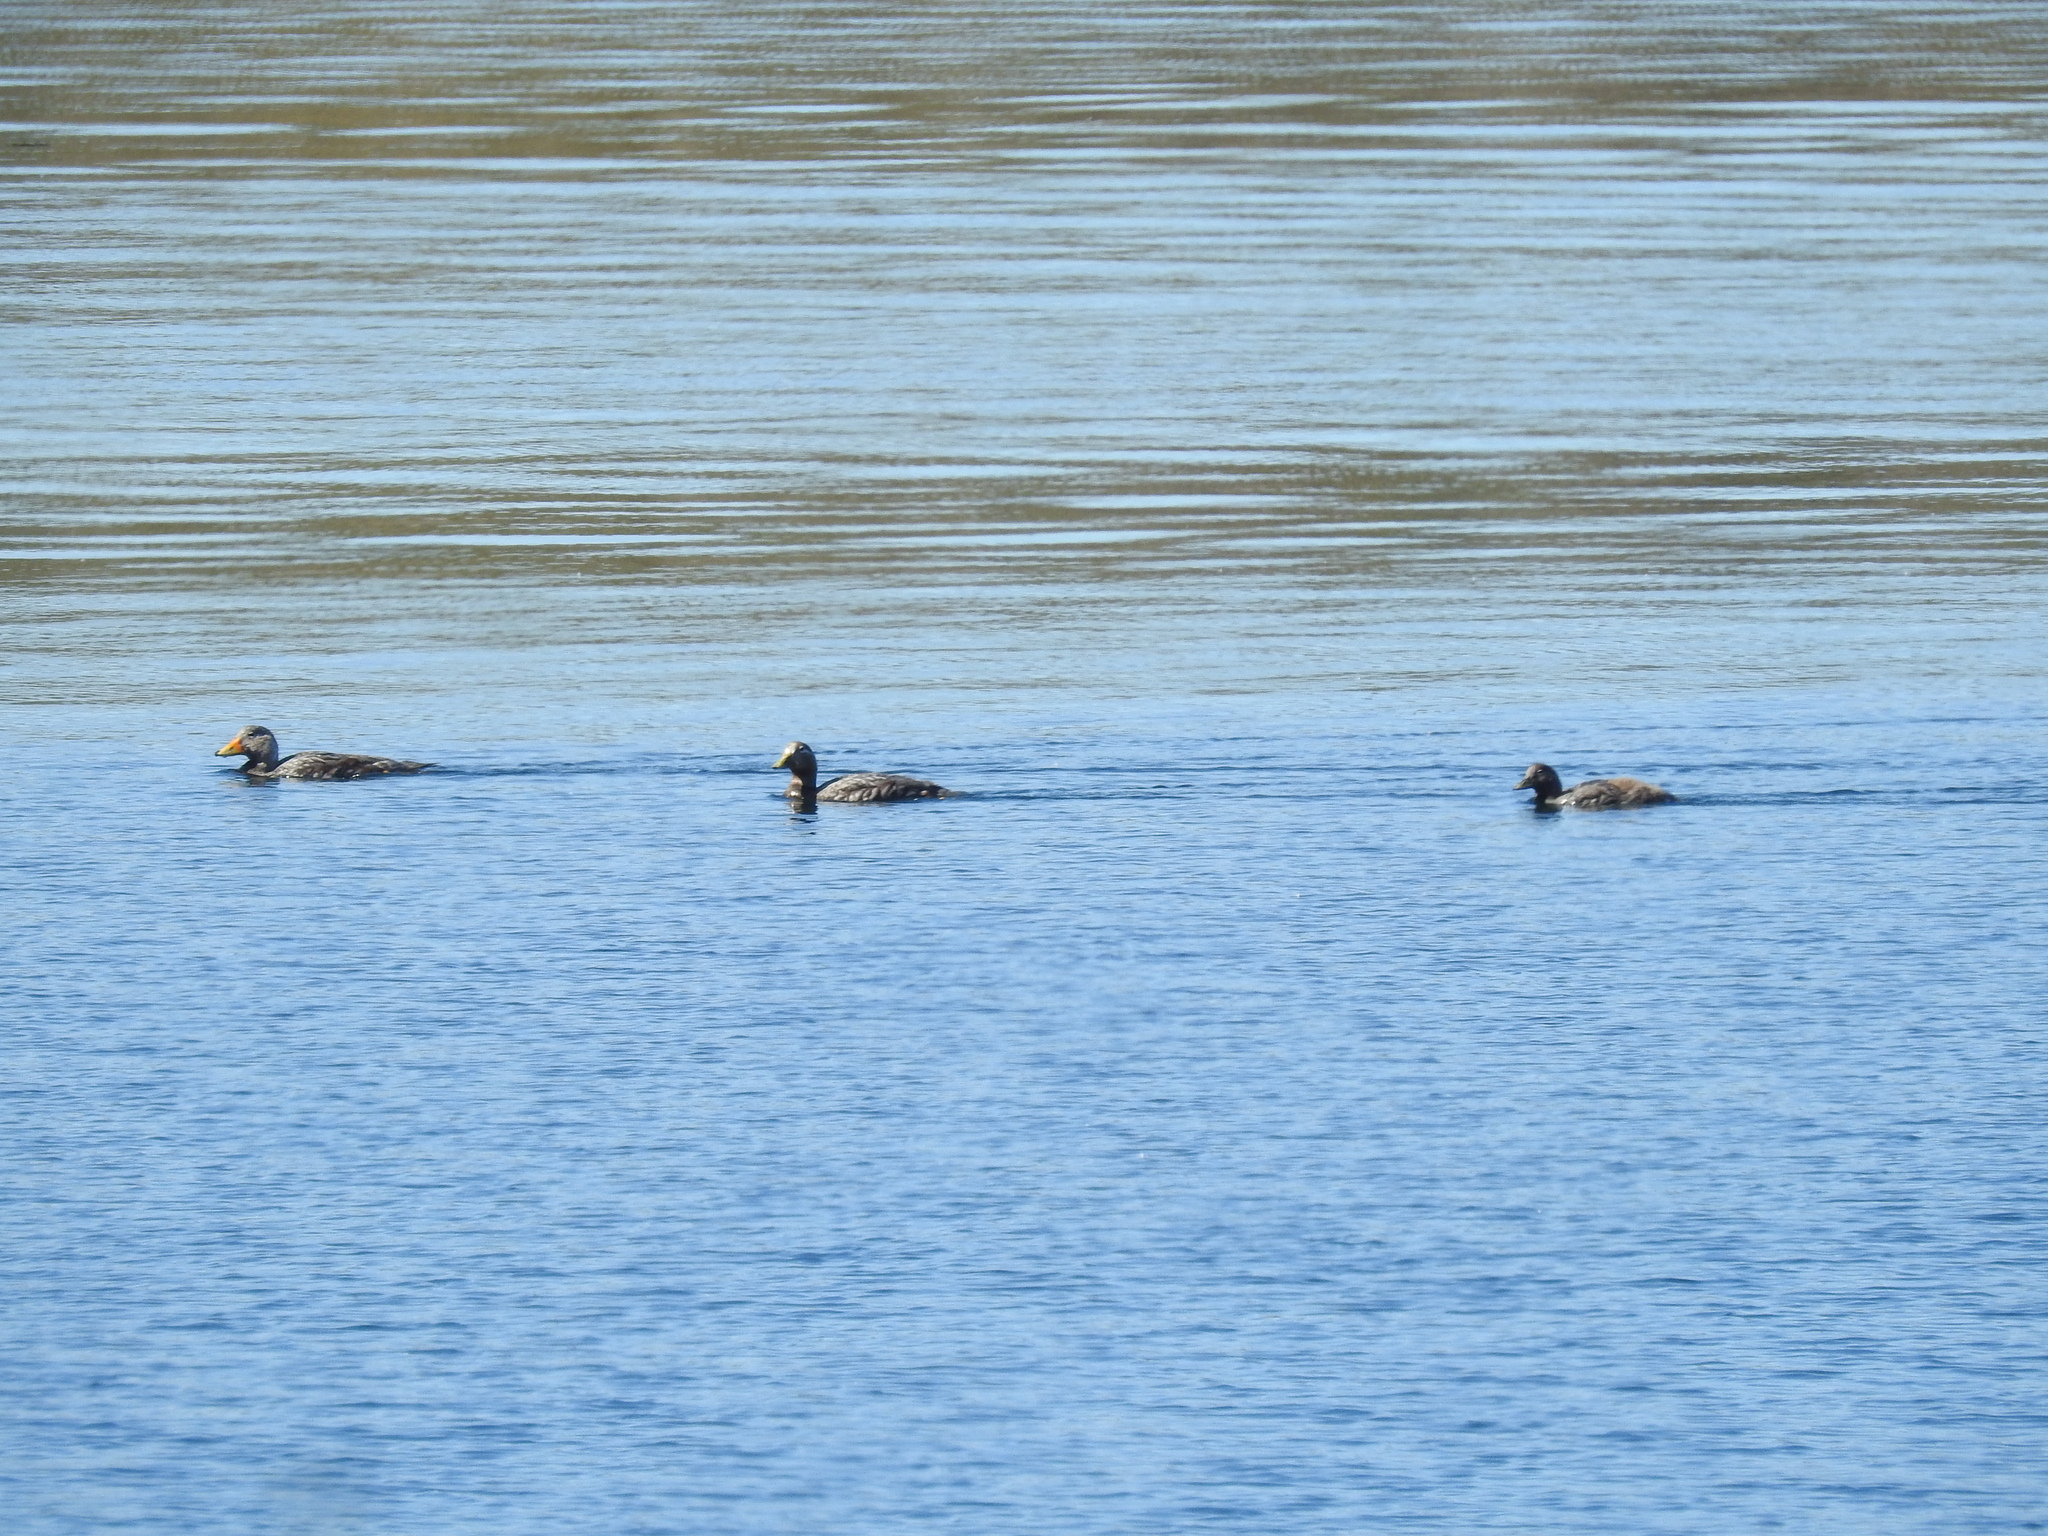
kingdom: Animalia
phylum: Chordata
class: Aves
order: Anseriformes
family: Anatidae
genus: Tachyeres
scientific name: Tachyeres patachonicus
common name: Flying steamer duck
